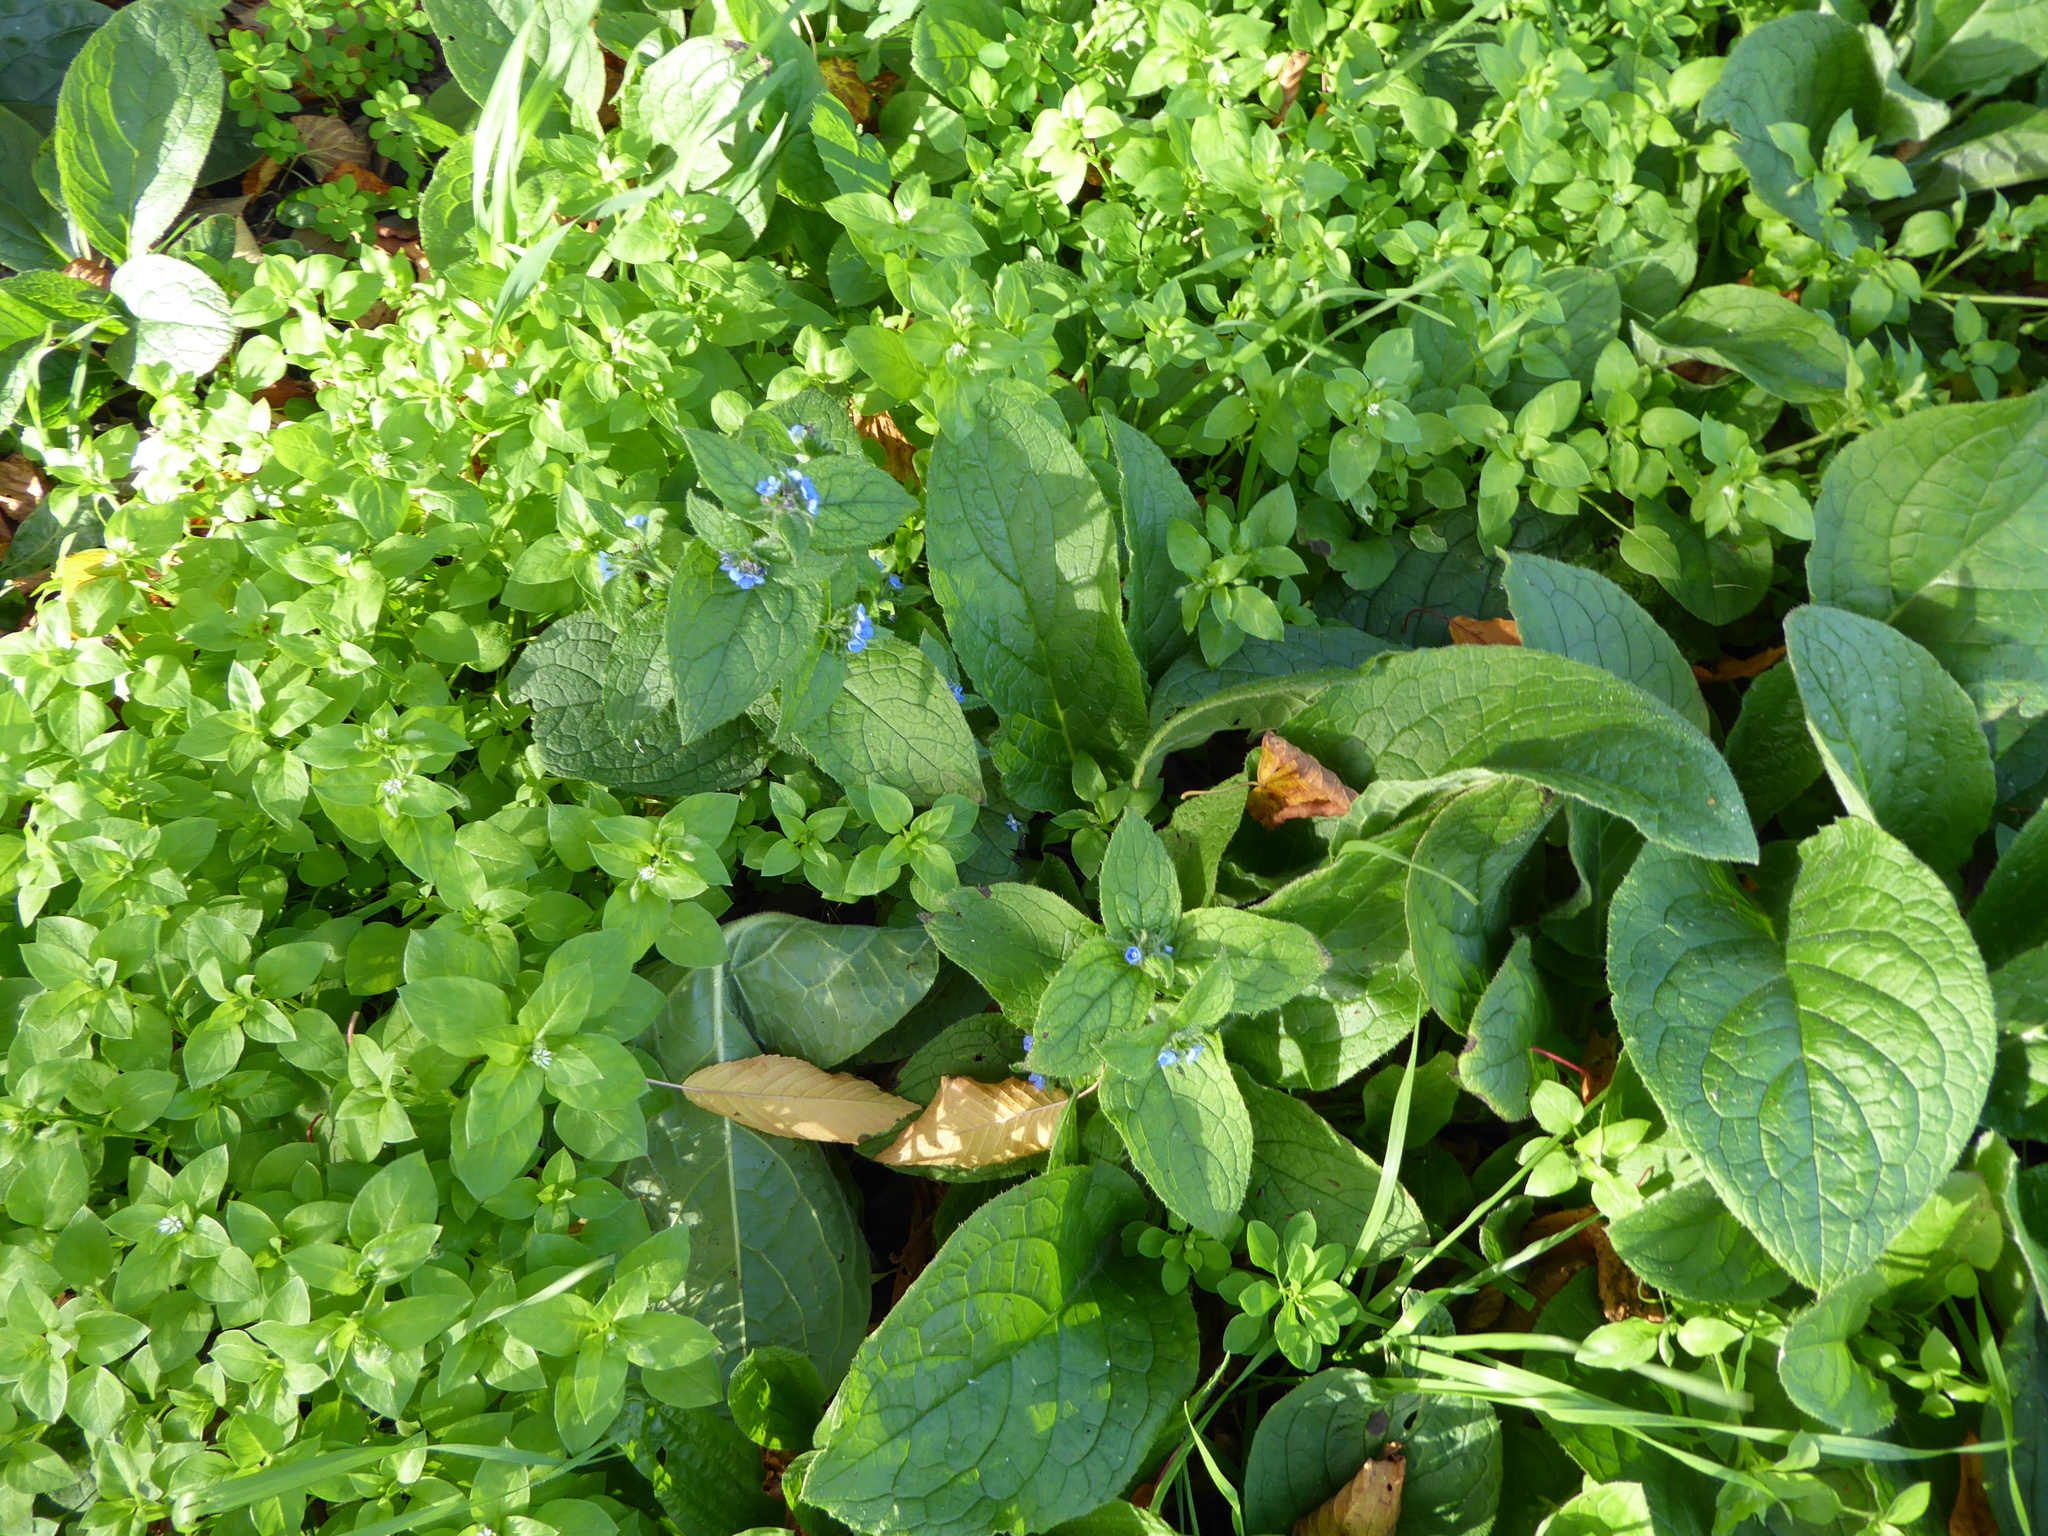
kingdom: Plantae
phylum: Tracheophyta
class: Magnoliopsida
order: Boraginales
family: Boraginaceae
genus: Pentaglottis
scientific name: Pentaglottis sempervirens
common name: Green alkanet
